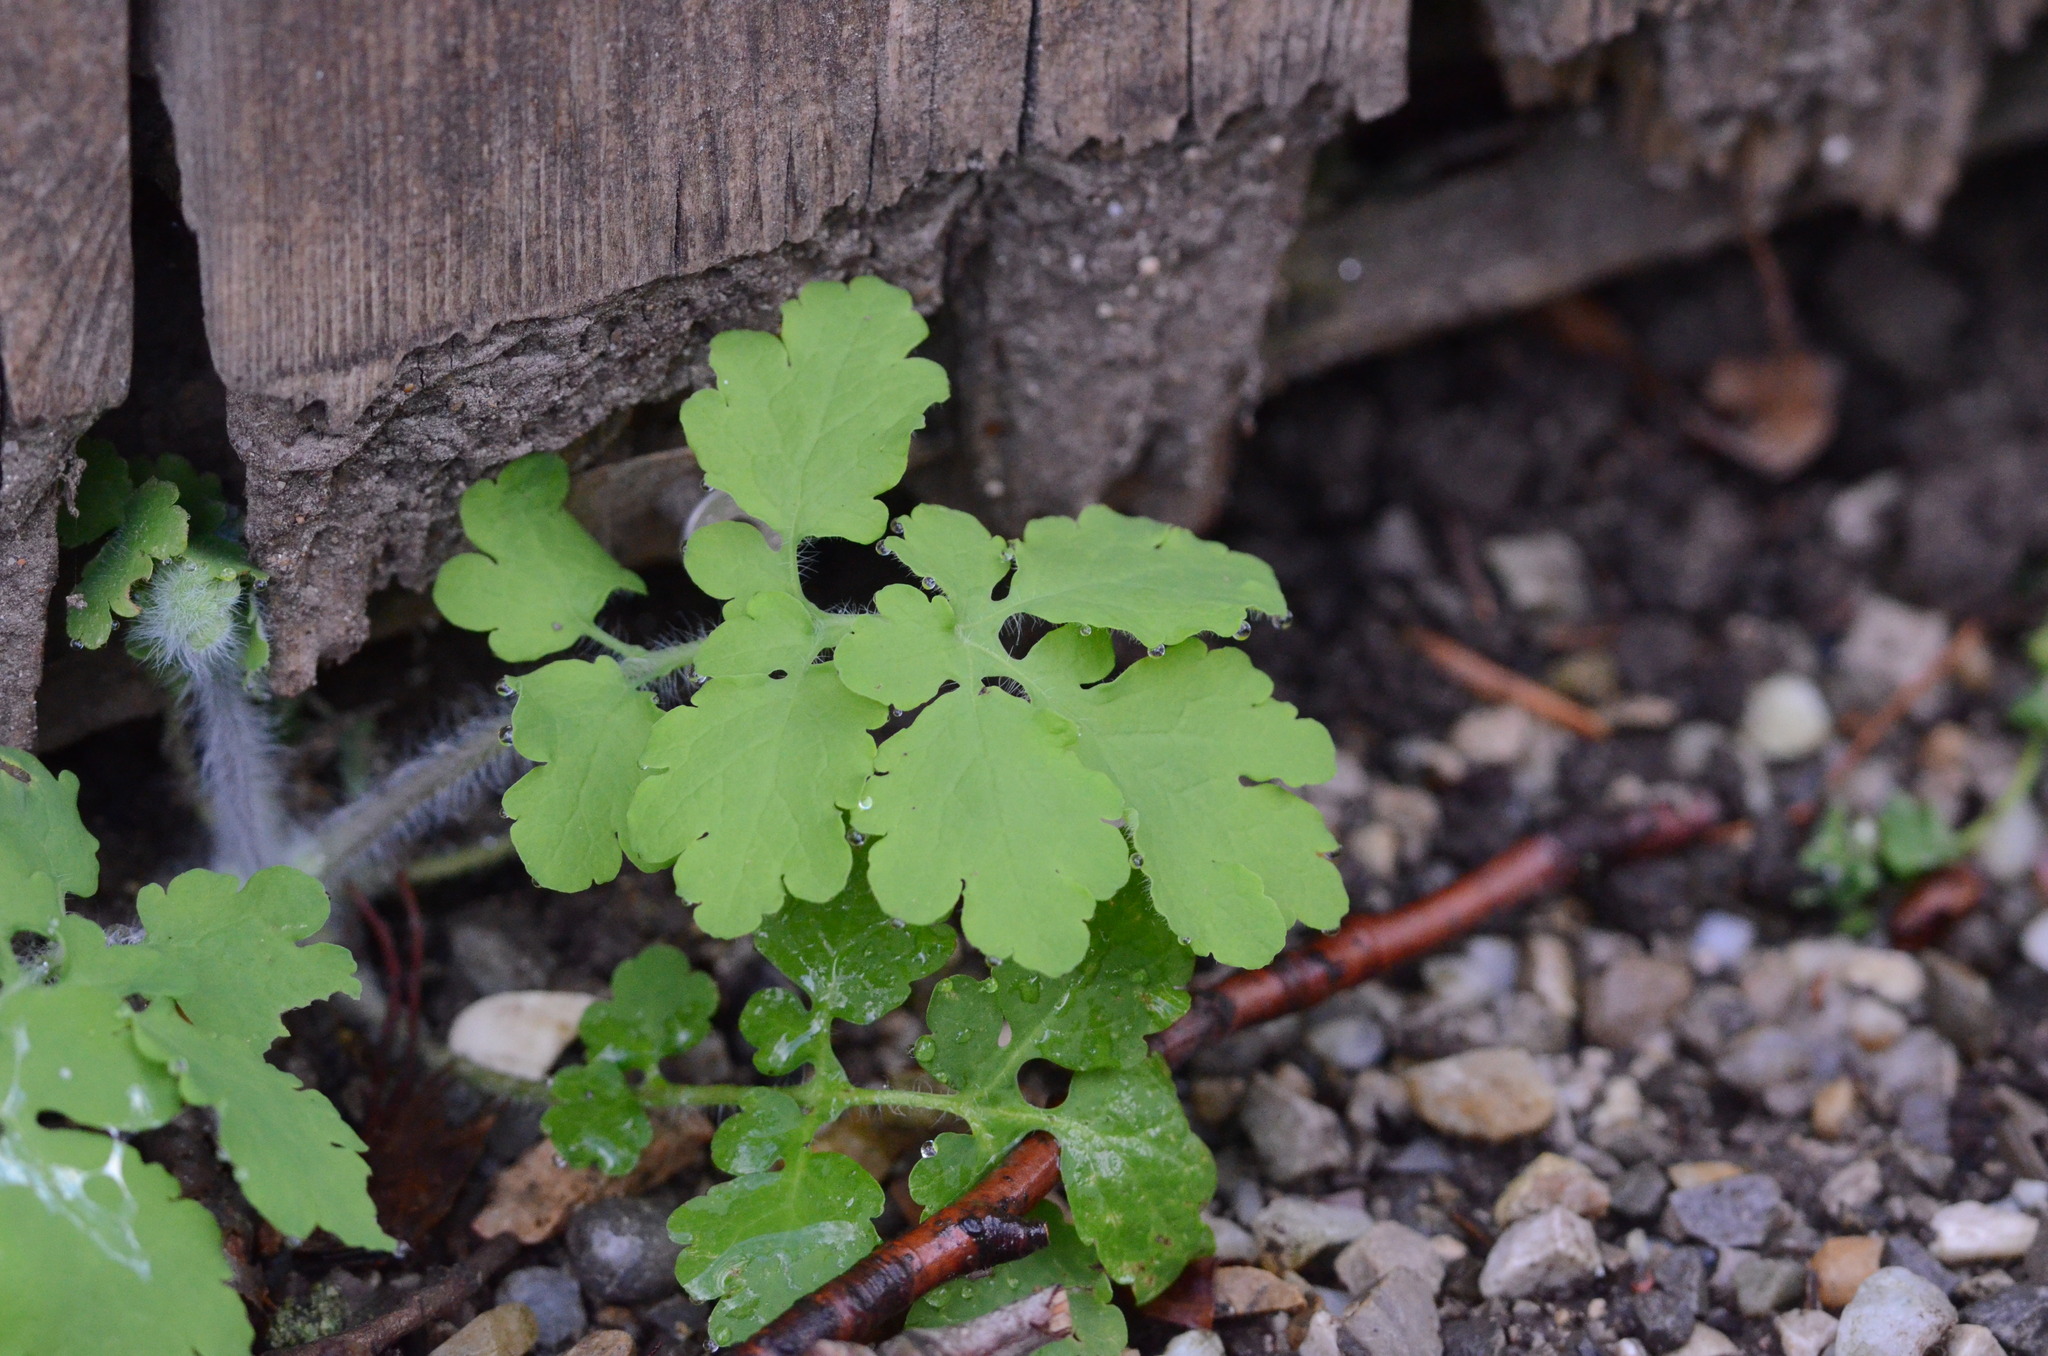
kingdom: Plantae
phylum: Tracheophyta
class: Magnoliopsida
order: Ranunculales
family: Papaveraceae
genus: Chelidonium
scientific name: Chelidonium majus
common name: Greater celandine
